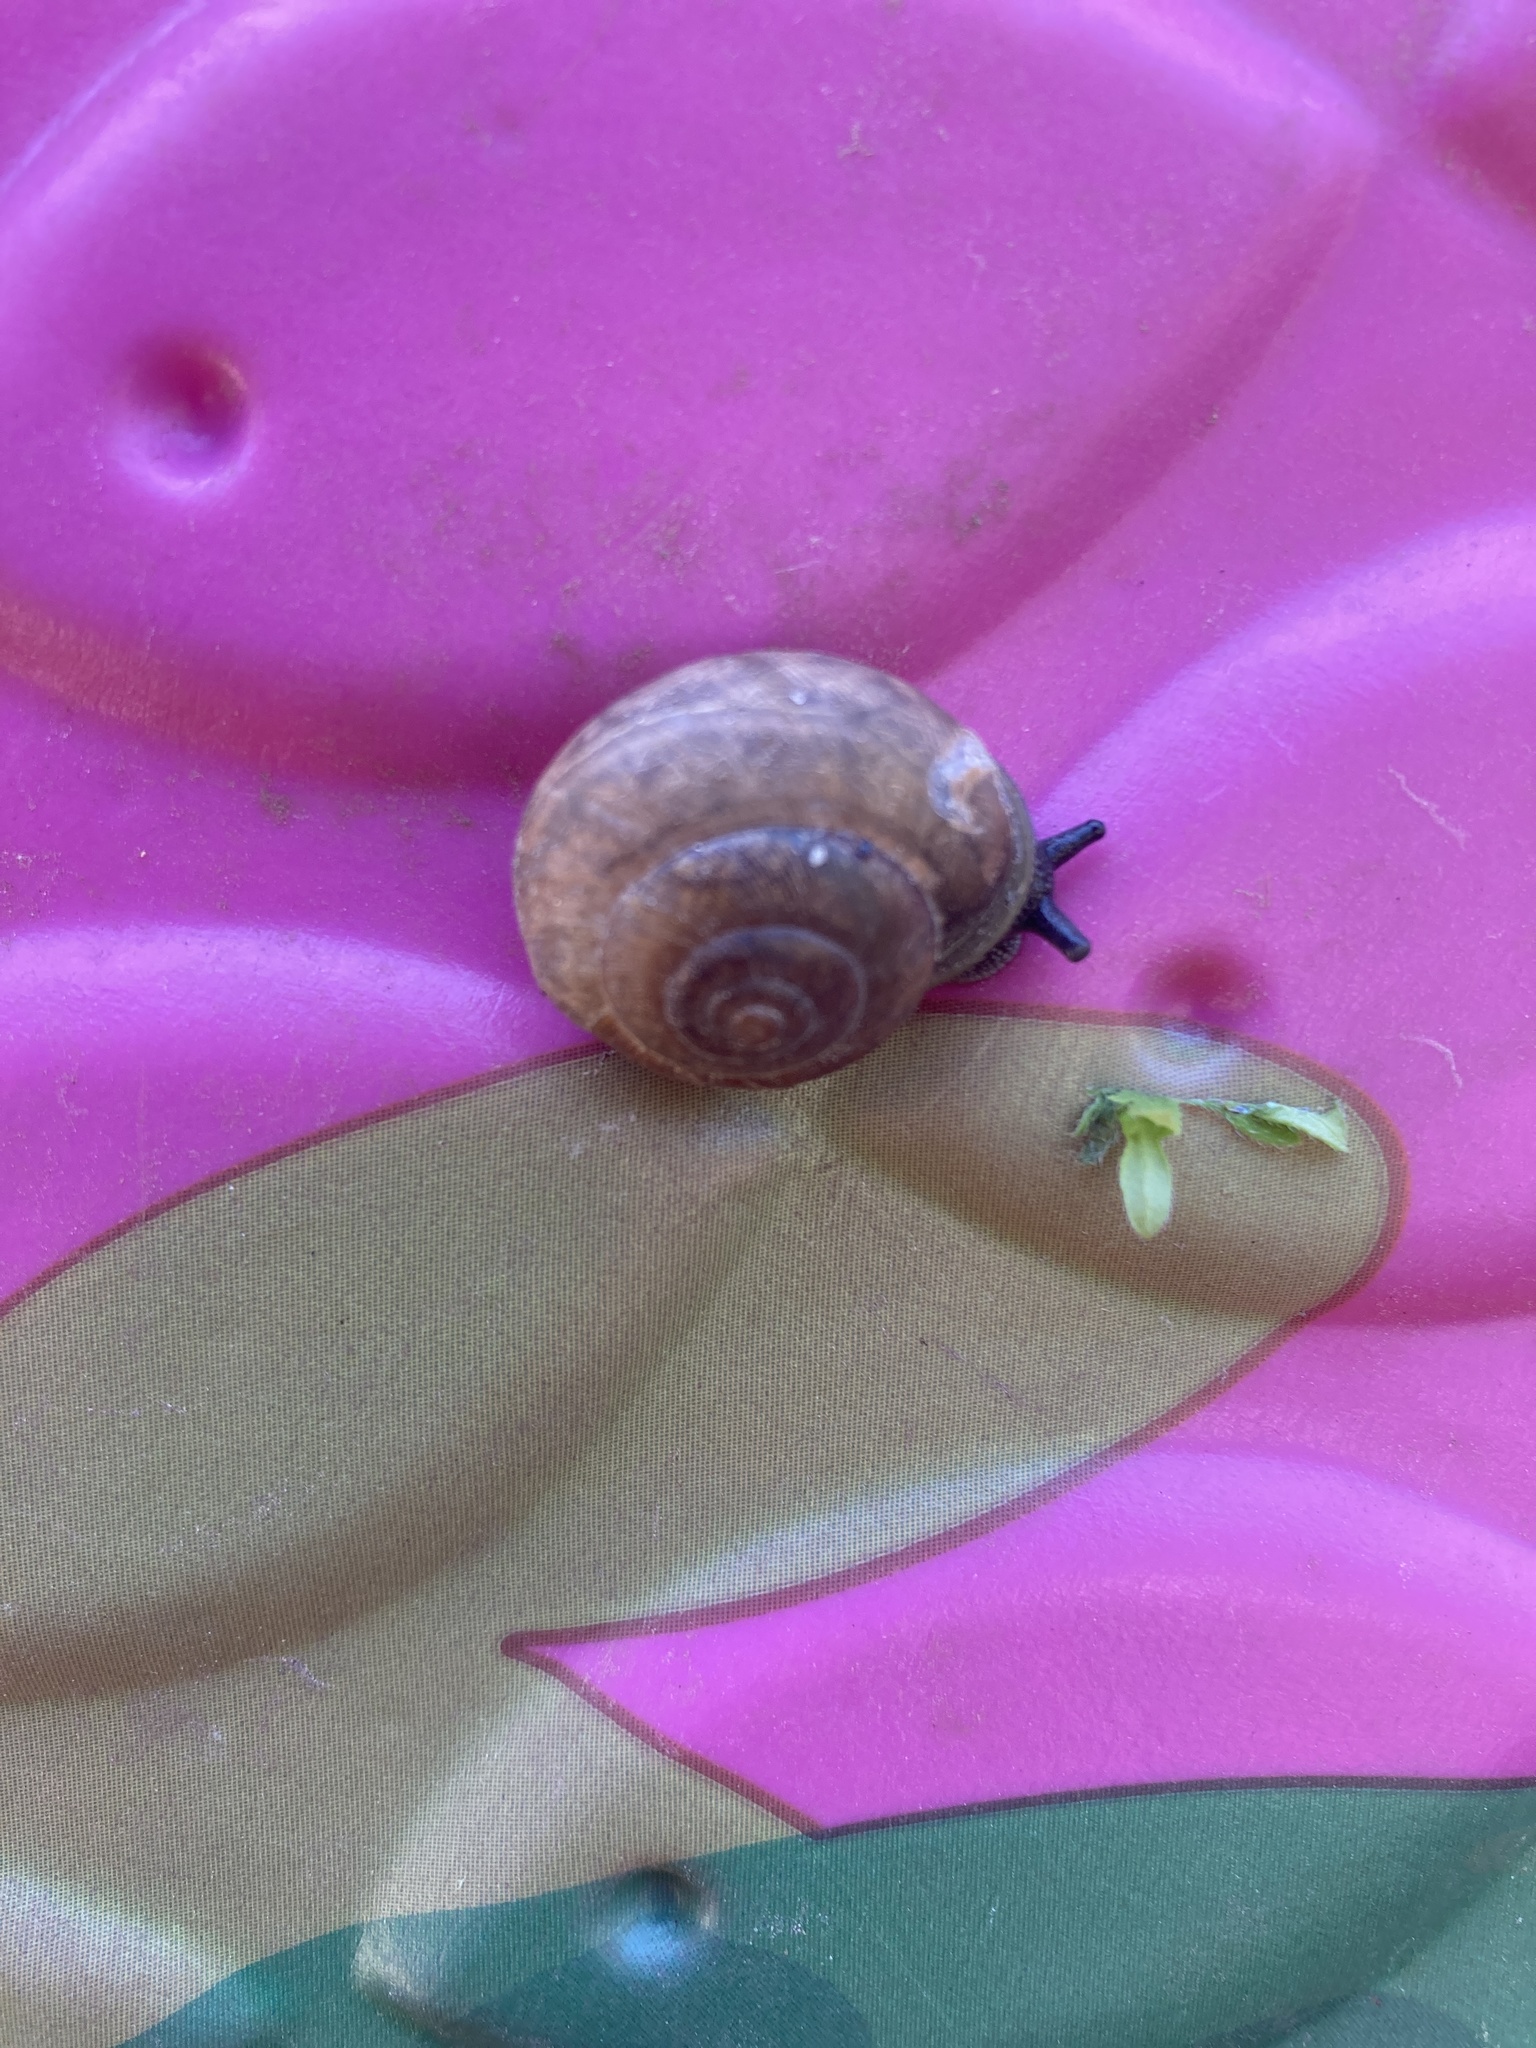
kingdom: Animalia
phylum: Mollusca
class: Gastropoda
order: Stylommatophora
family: Polygyridae
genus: Mesodon
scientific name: Mesodon thyroidus
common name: White-lip globe
